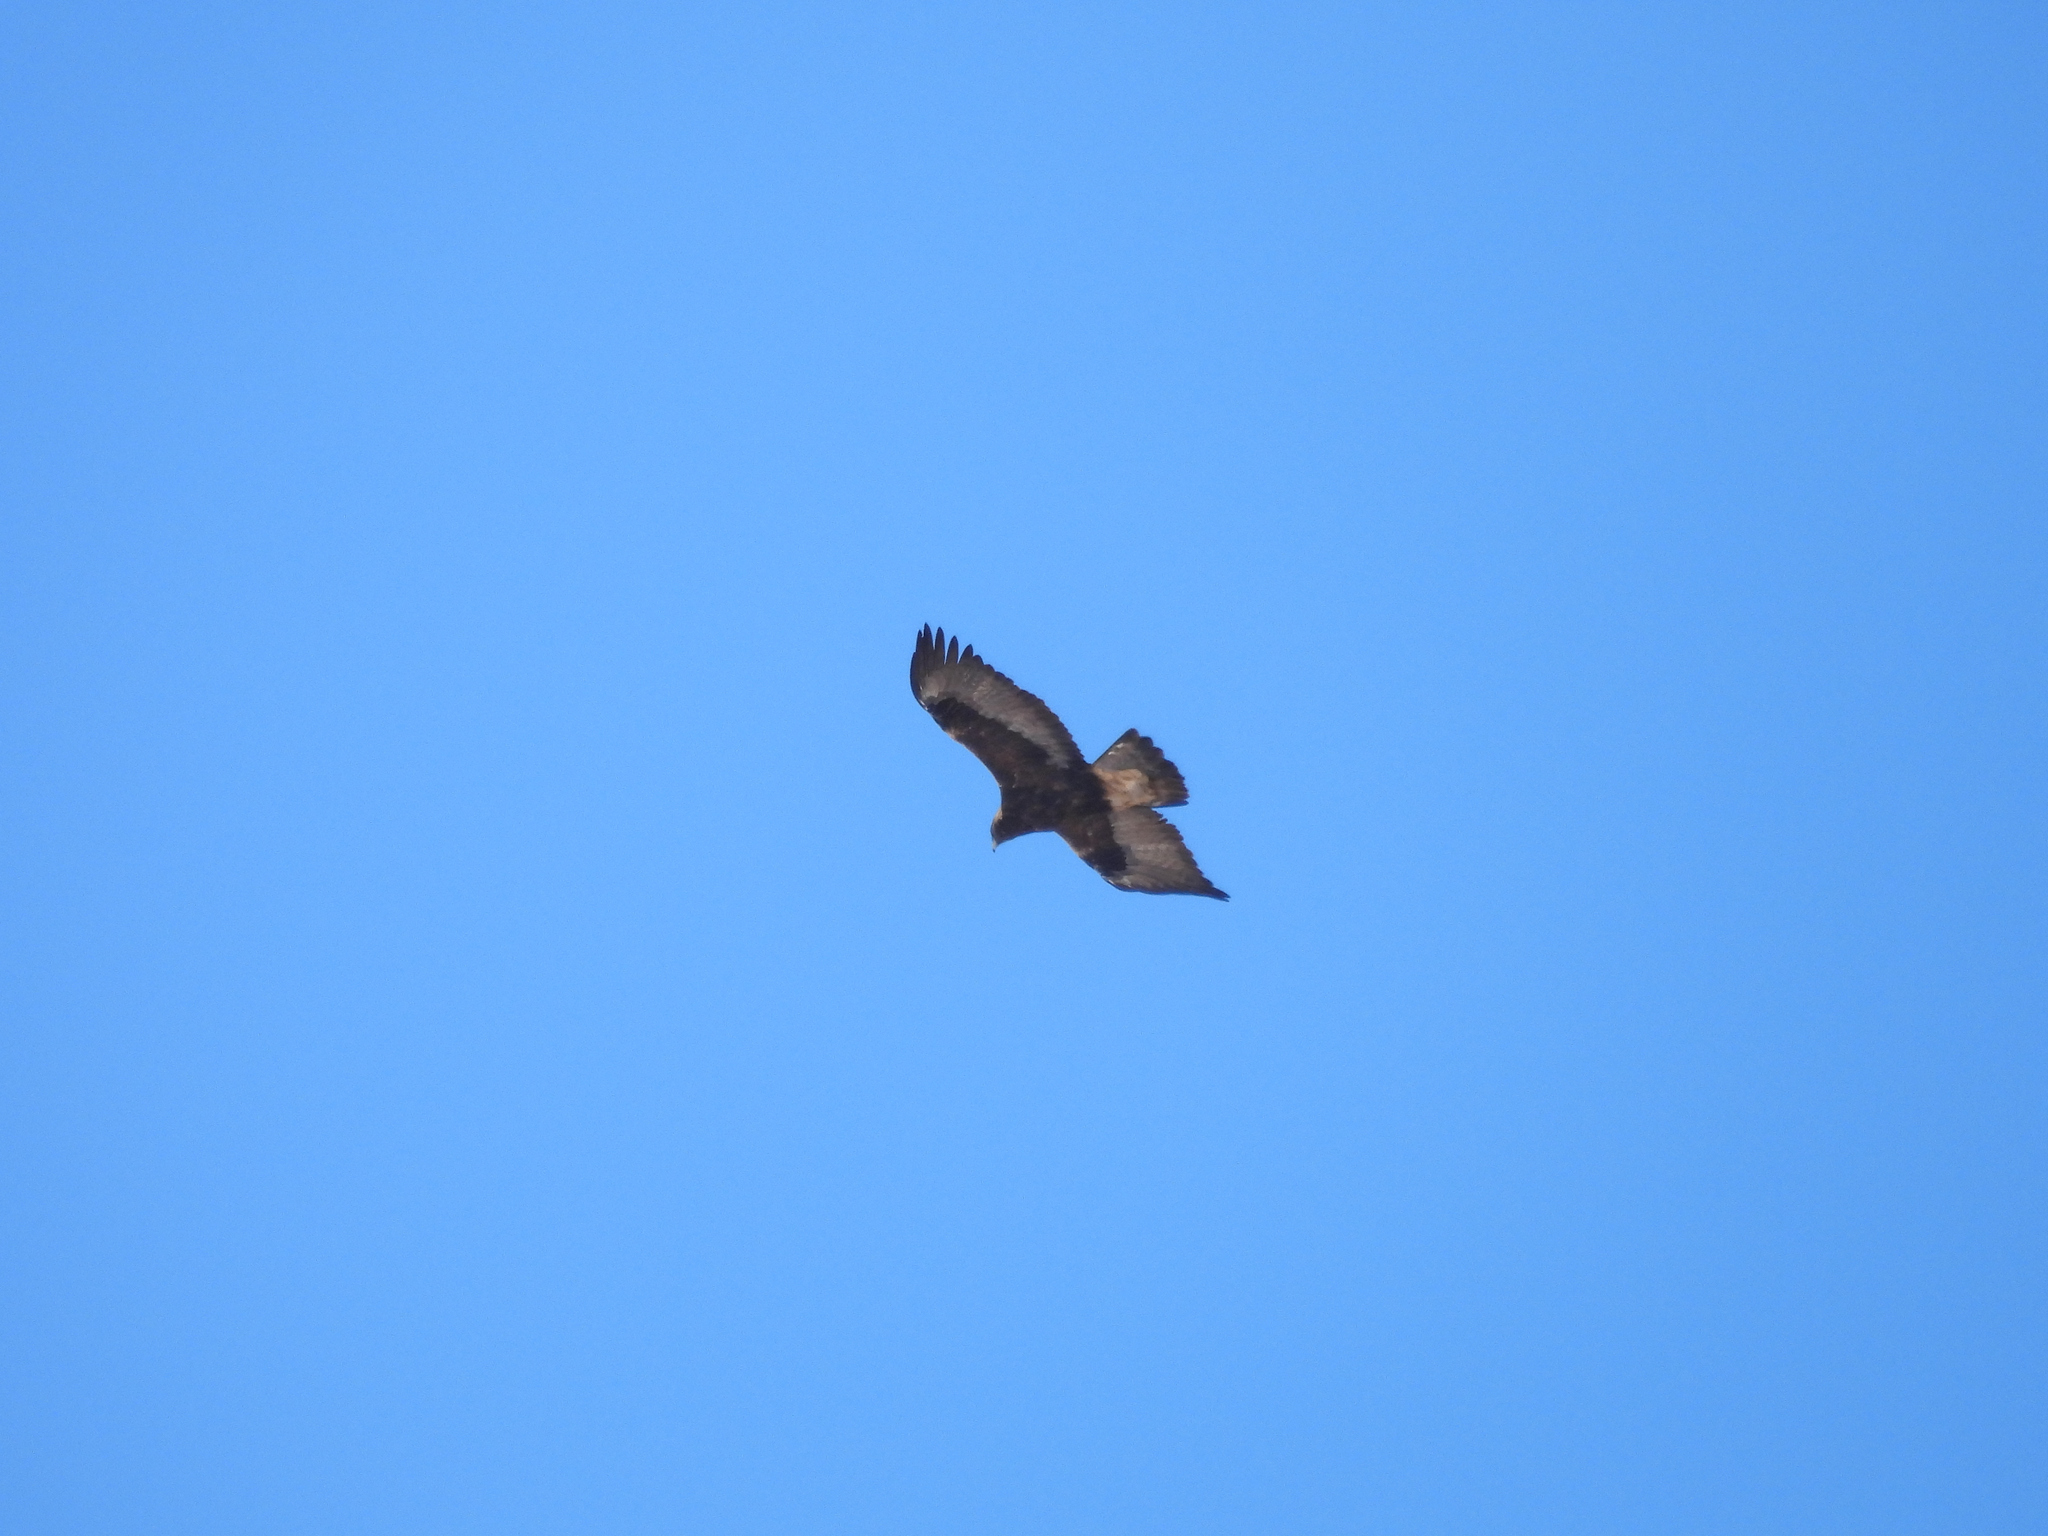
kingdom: Animalia
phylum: Chordata
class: Aves
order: Accipitriformes
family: Accipitridae
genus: Aquila
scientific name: Aquila chrysaetos
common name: Golden eagle
